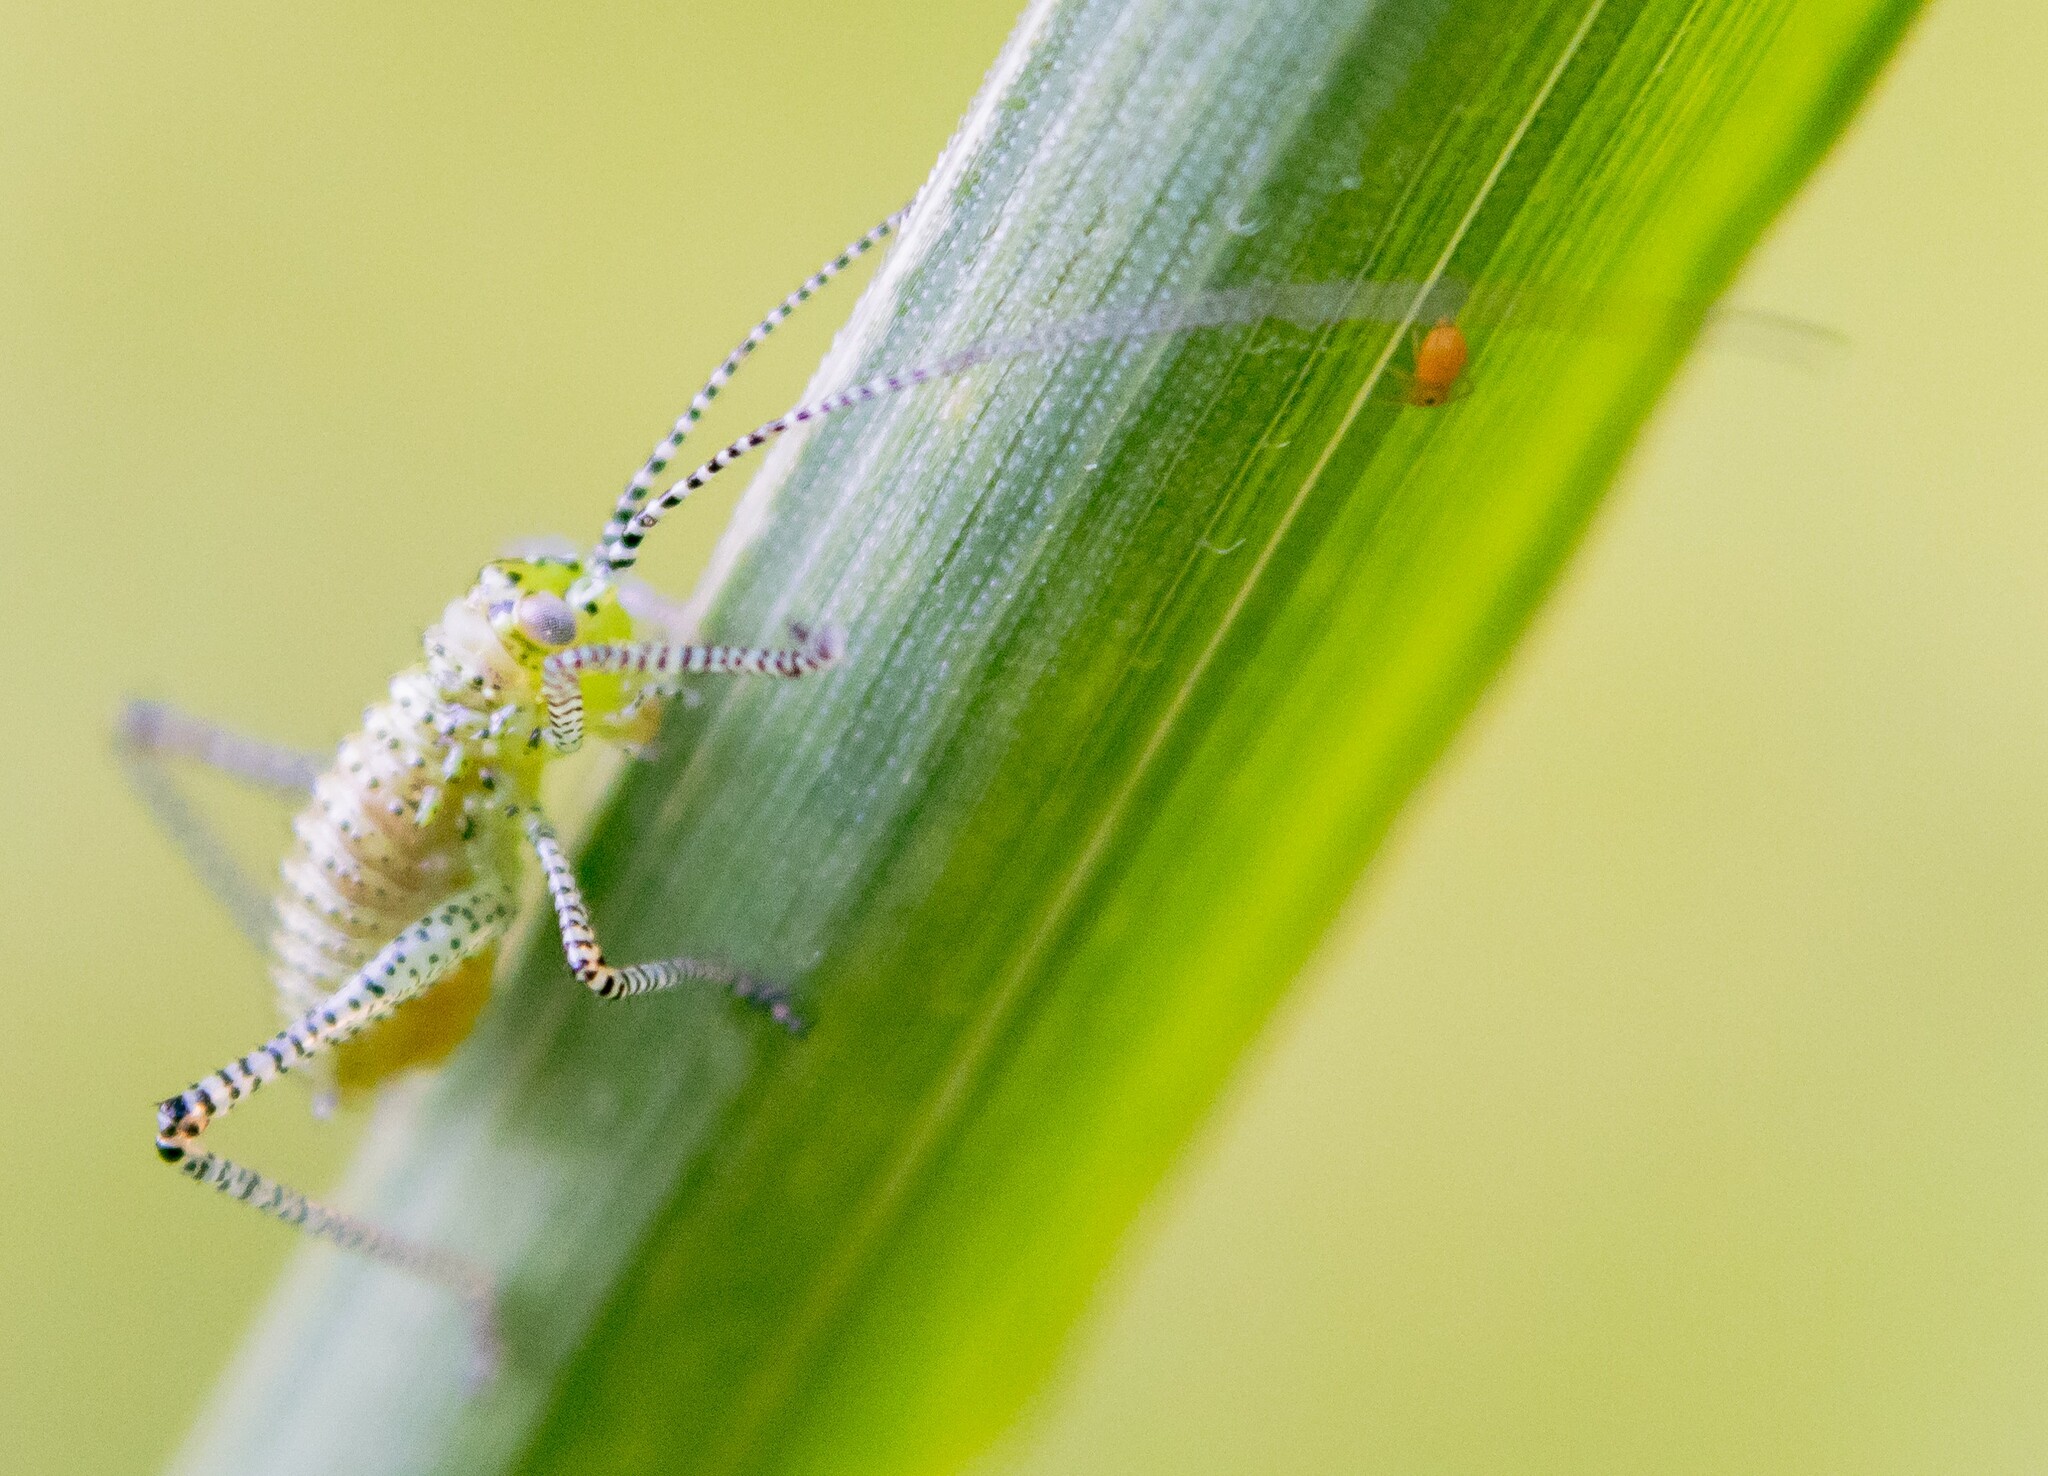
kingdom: Animalia
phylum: Arthropoda
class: Insecta
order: Orthoptera
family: Tettigoniidae
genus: Leptophyes
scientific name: Leptophyes punctatissima
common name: Speckled bush-cricket
